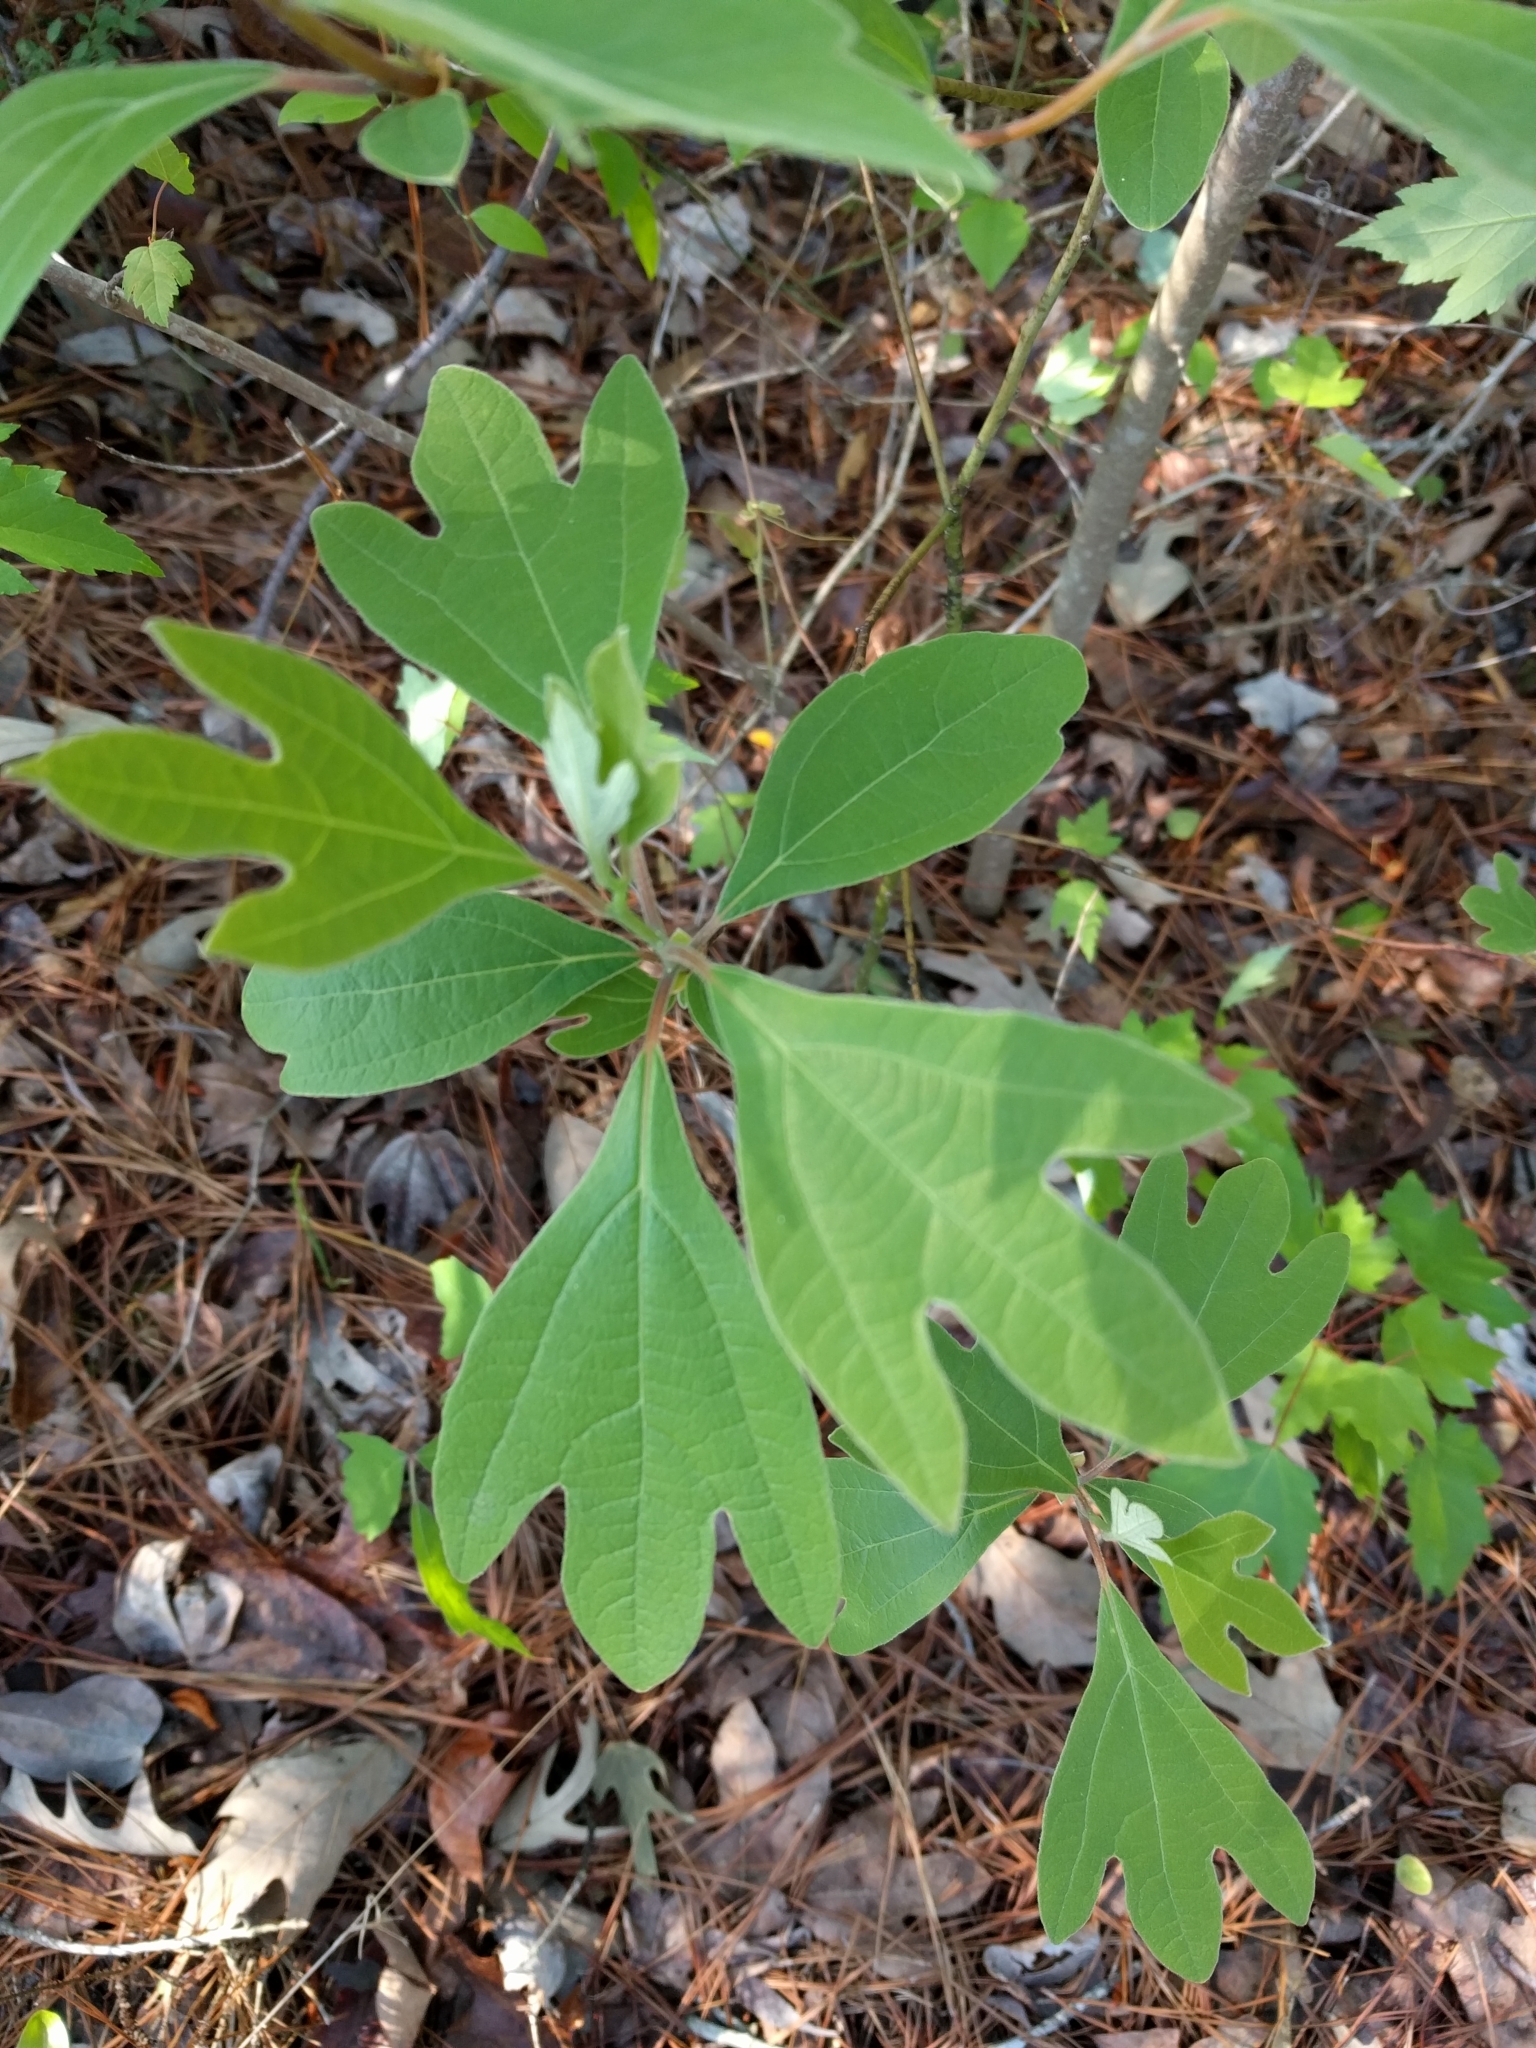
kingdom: Plantae
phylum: Tracheophyta
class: Magnoliopsida
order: Laurales
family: Lauraceae
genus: Sassafras
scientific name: Sassafras albidum
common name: Sassafras
